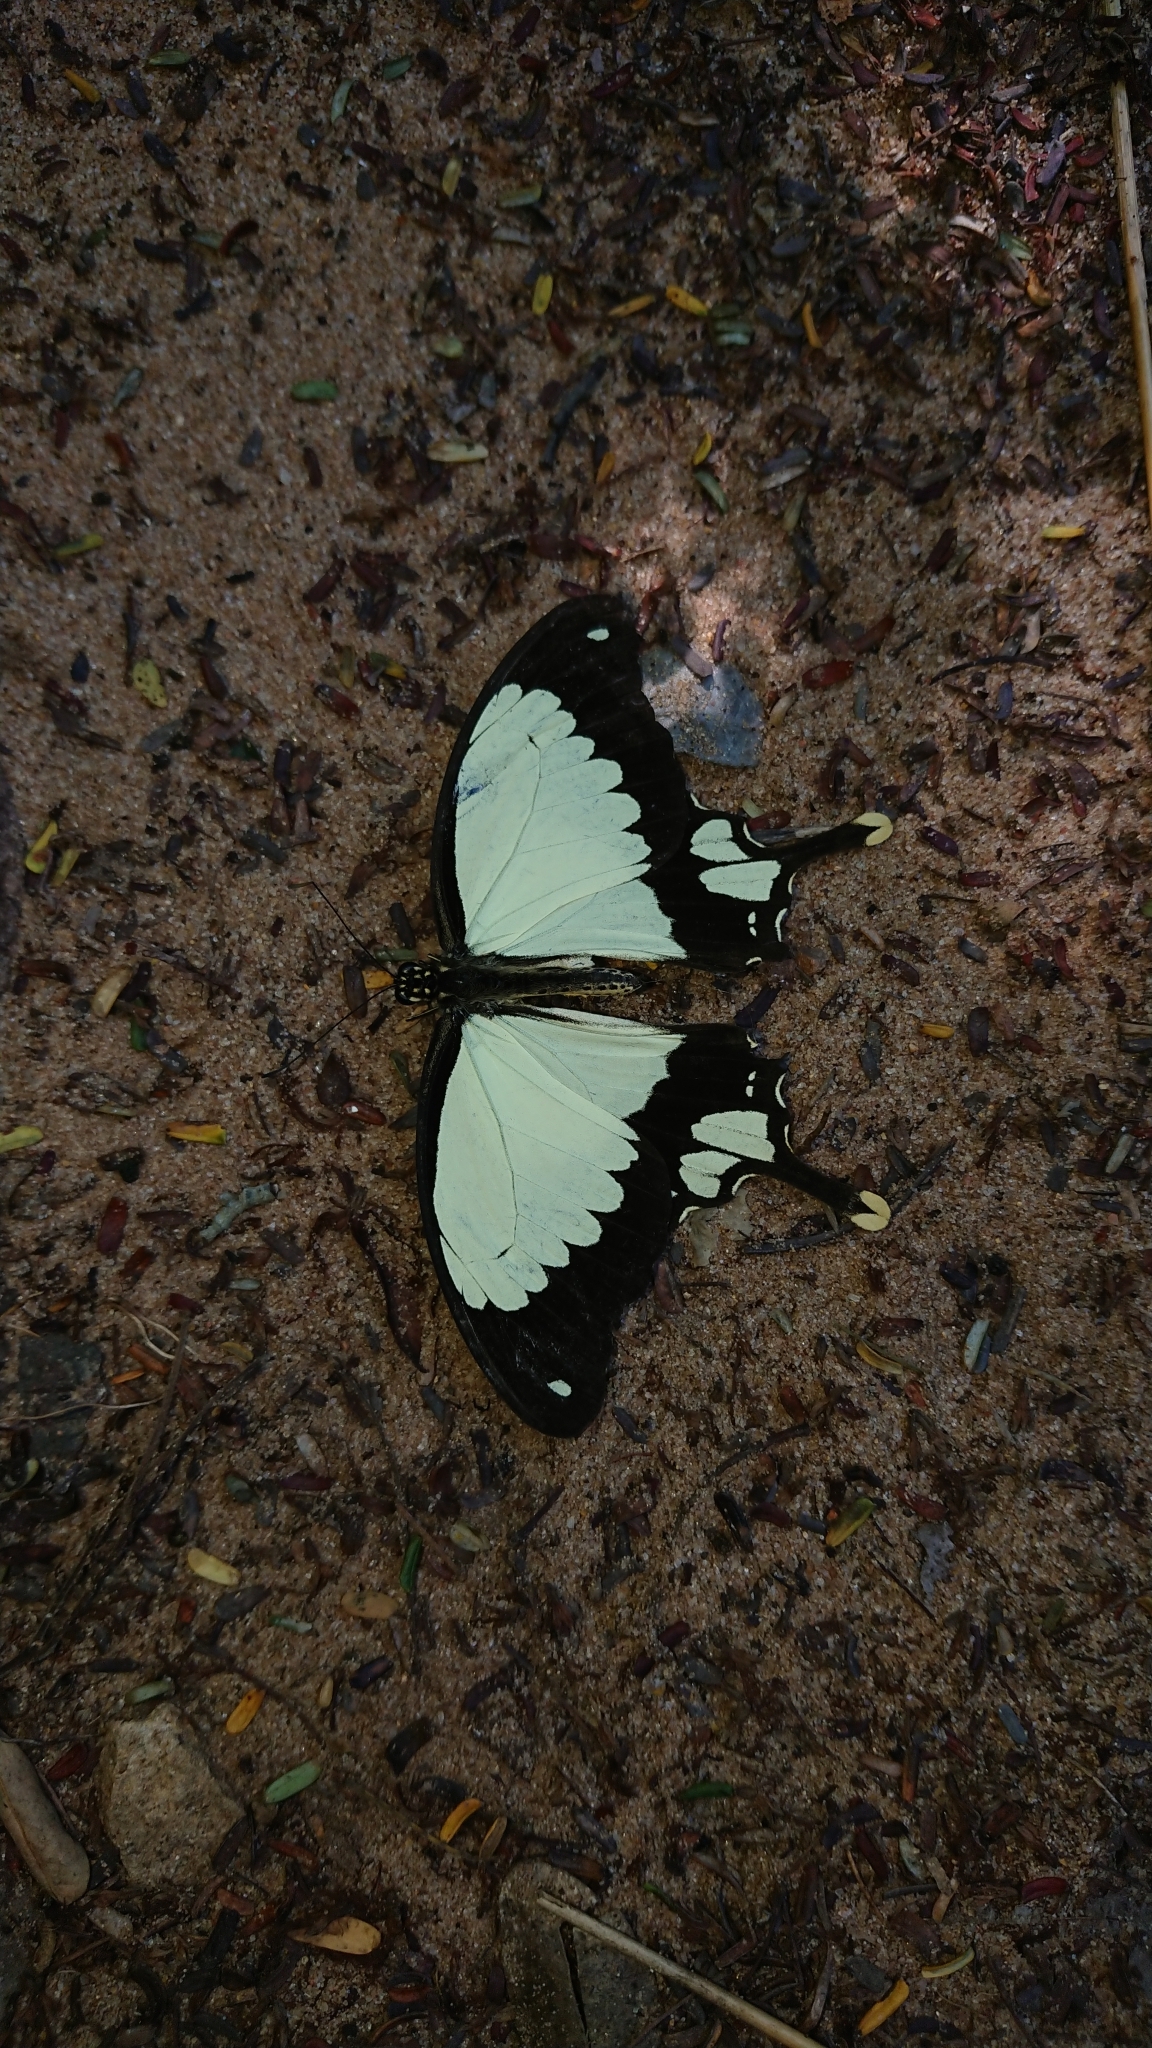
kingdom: Animalia
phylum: Arthropoda
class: Insecta
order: Lepidoptera
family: Papilionidae
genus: Papilio
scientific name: Papilio dardanus
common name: Flying handkerchief
